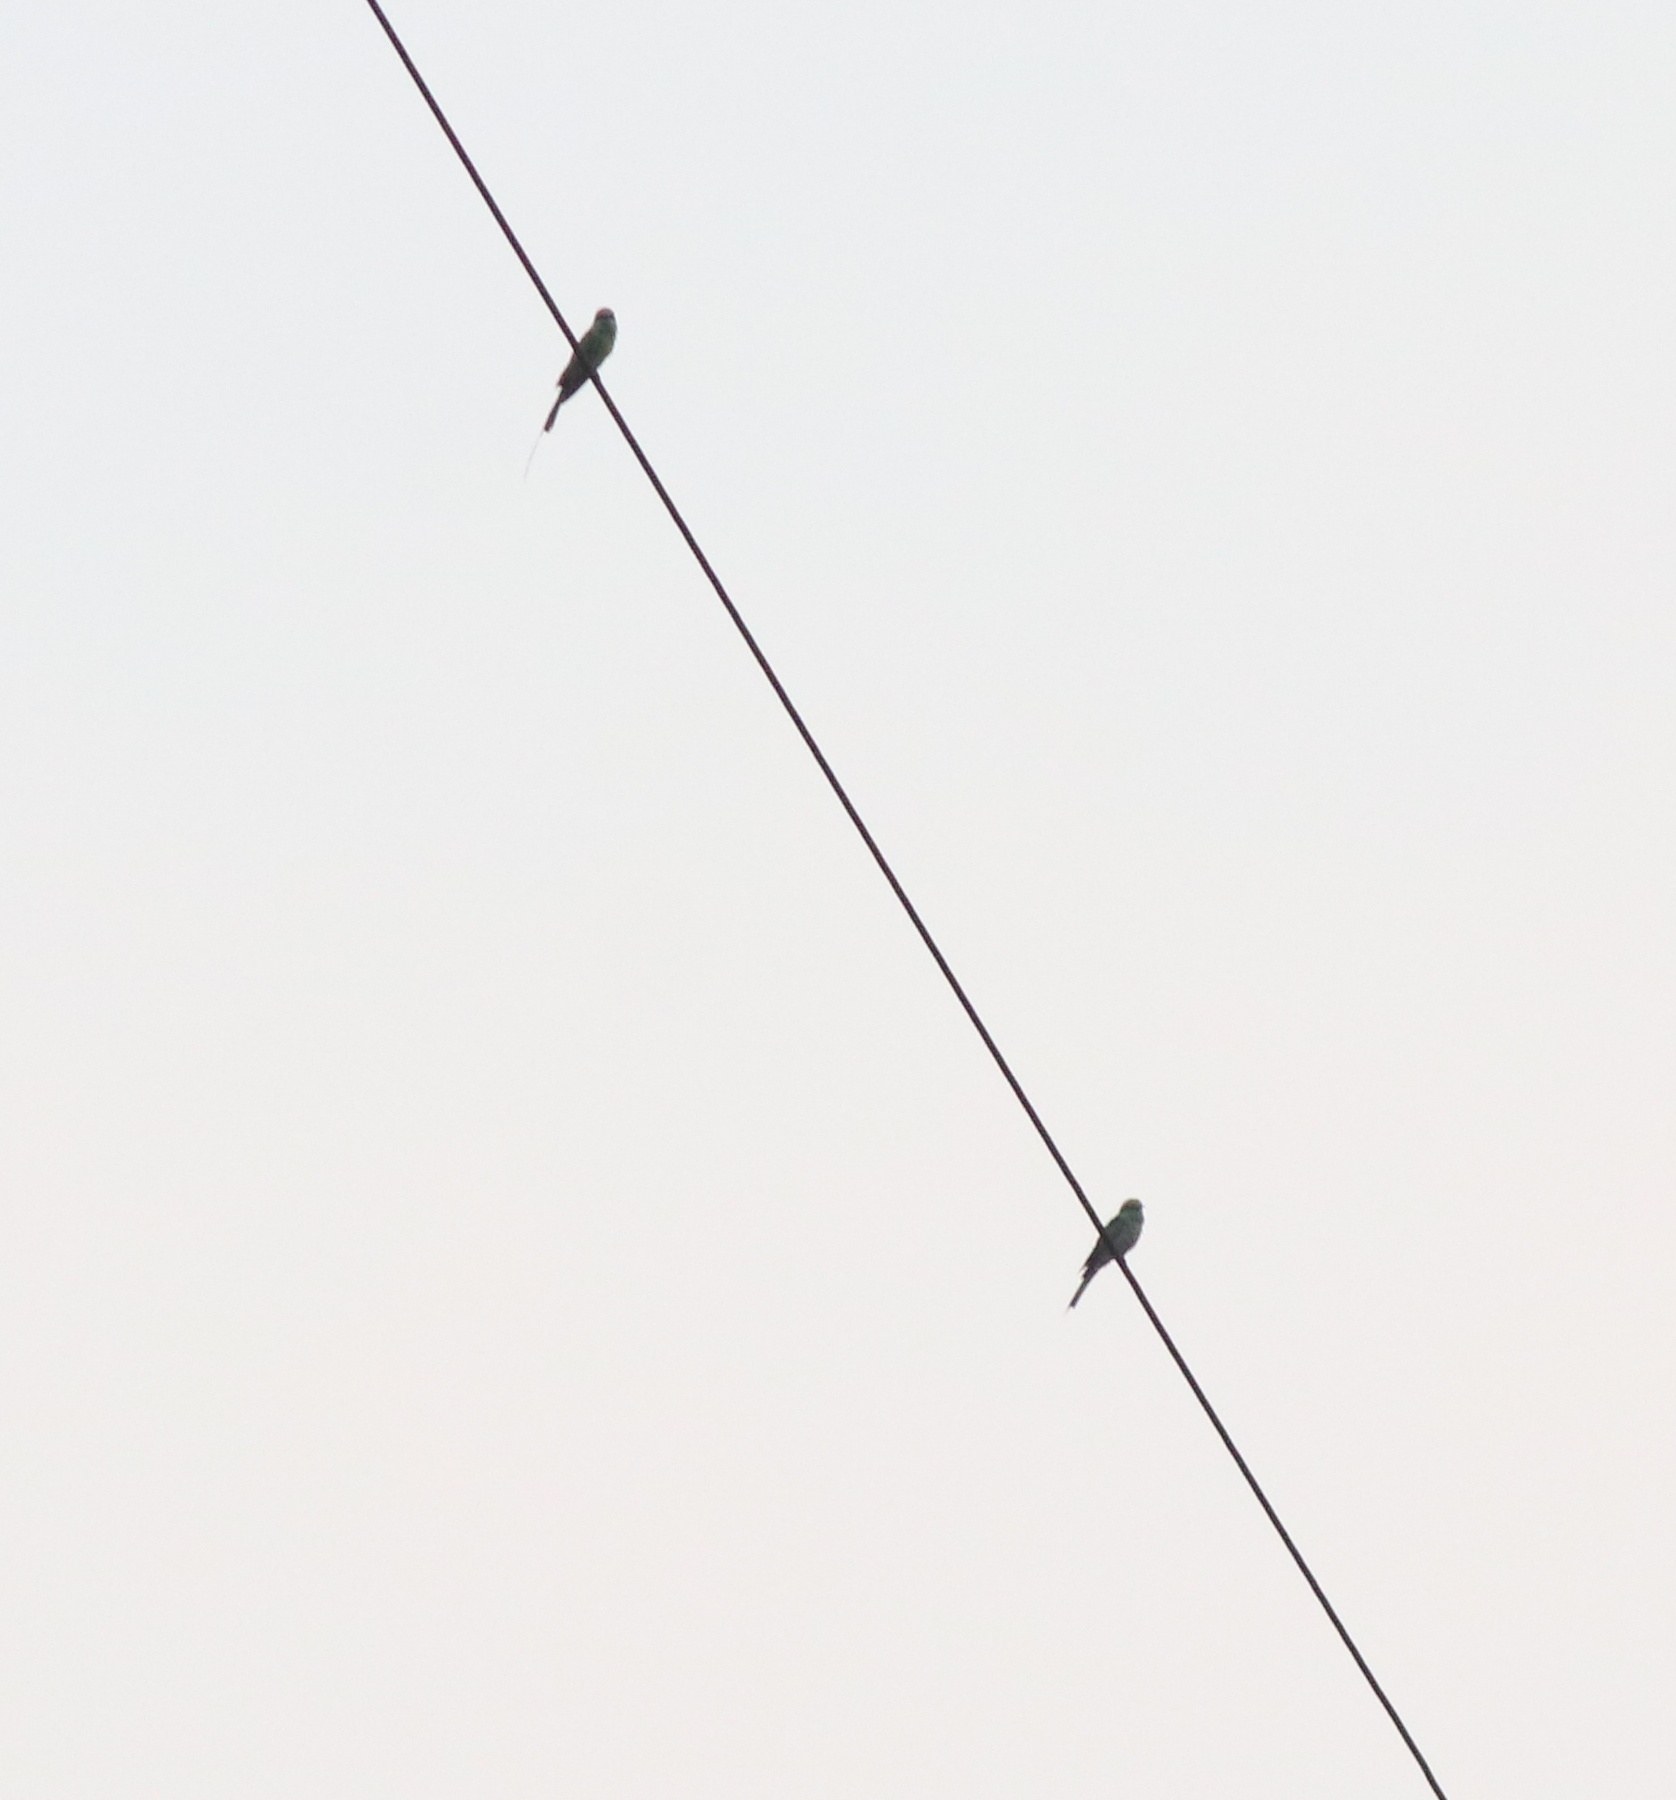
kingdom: Animalia
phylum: Chordata
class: Aves
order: Coraciiformes
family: Meropidae
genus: Merops
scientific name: Merops orientalis
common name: Green bee-eater
